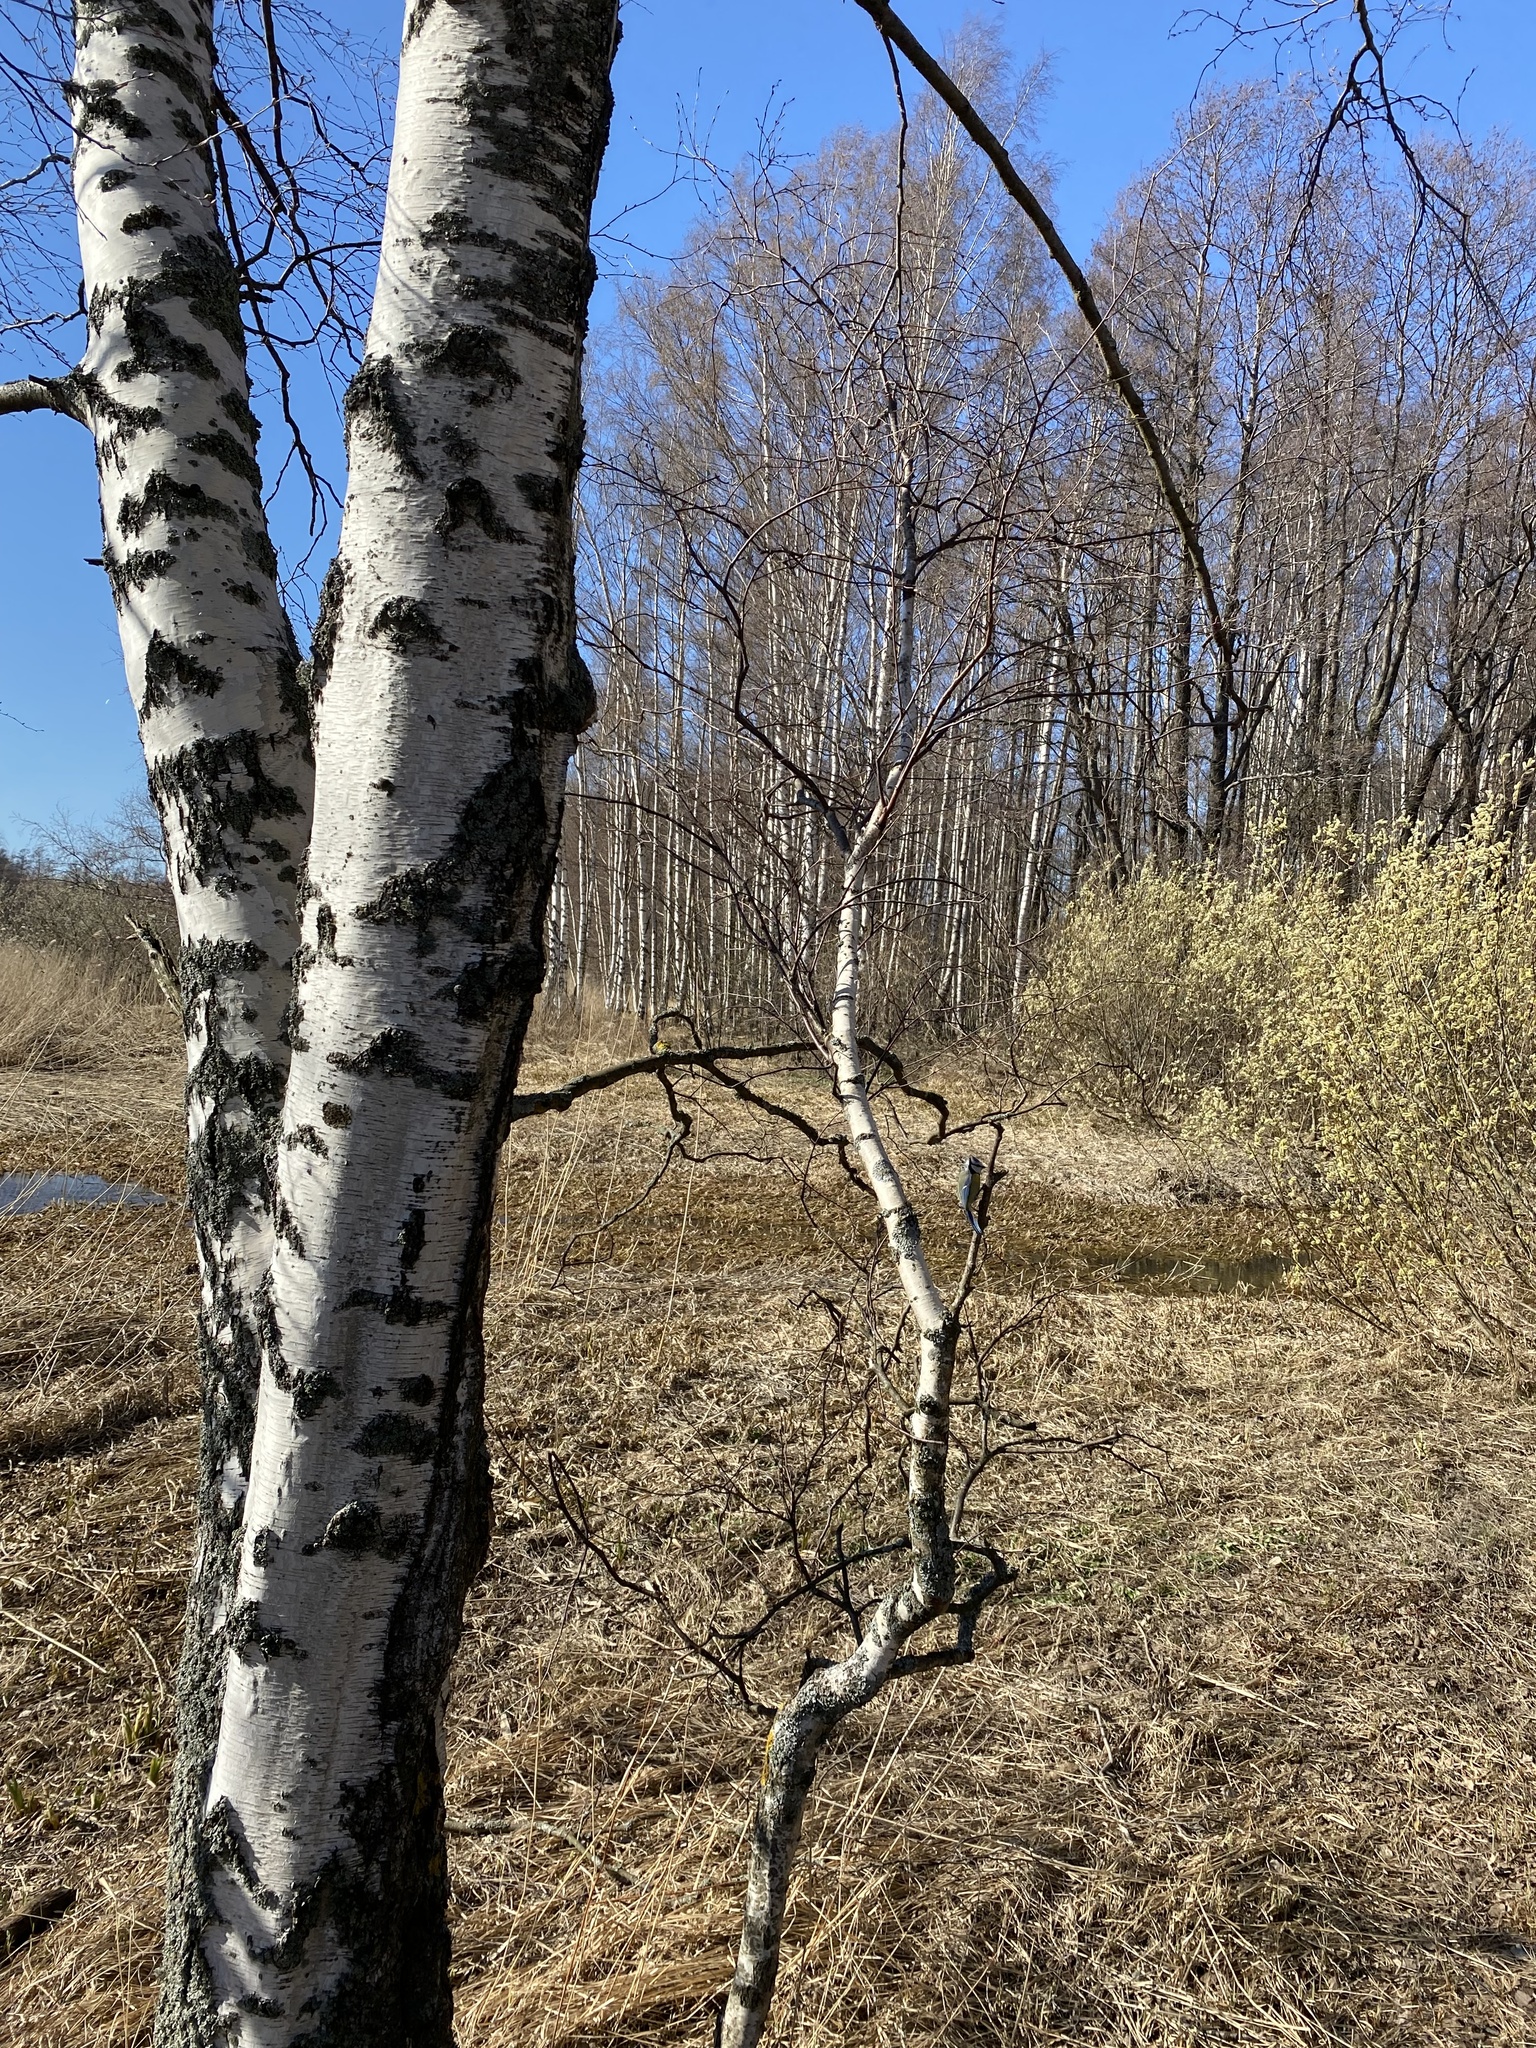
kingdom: Animalia
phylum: Chordata
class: Aves
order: Passeriformes
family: Paridae
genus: Cyanistes
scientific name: Cyanistes caeruleus
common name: Eurasian blue tit
